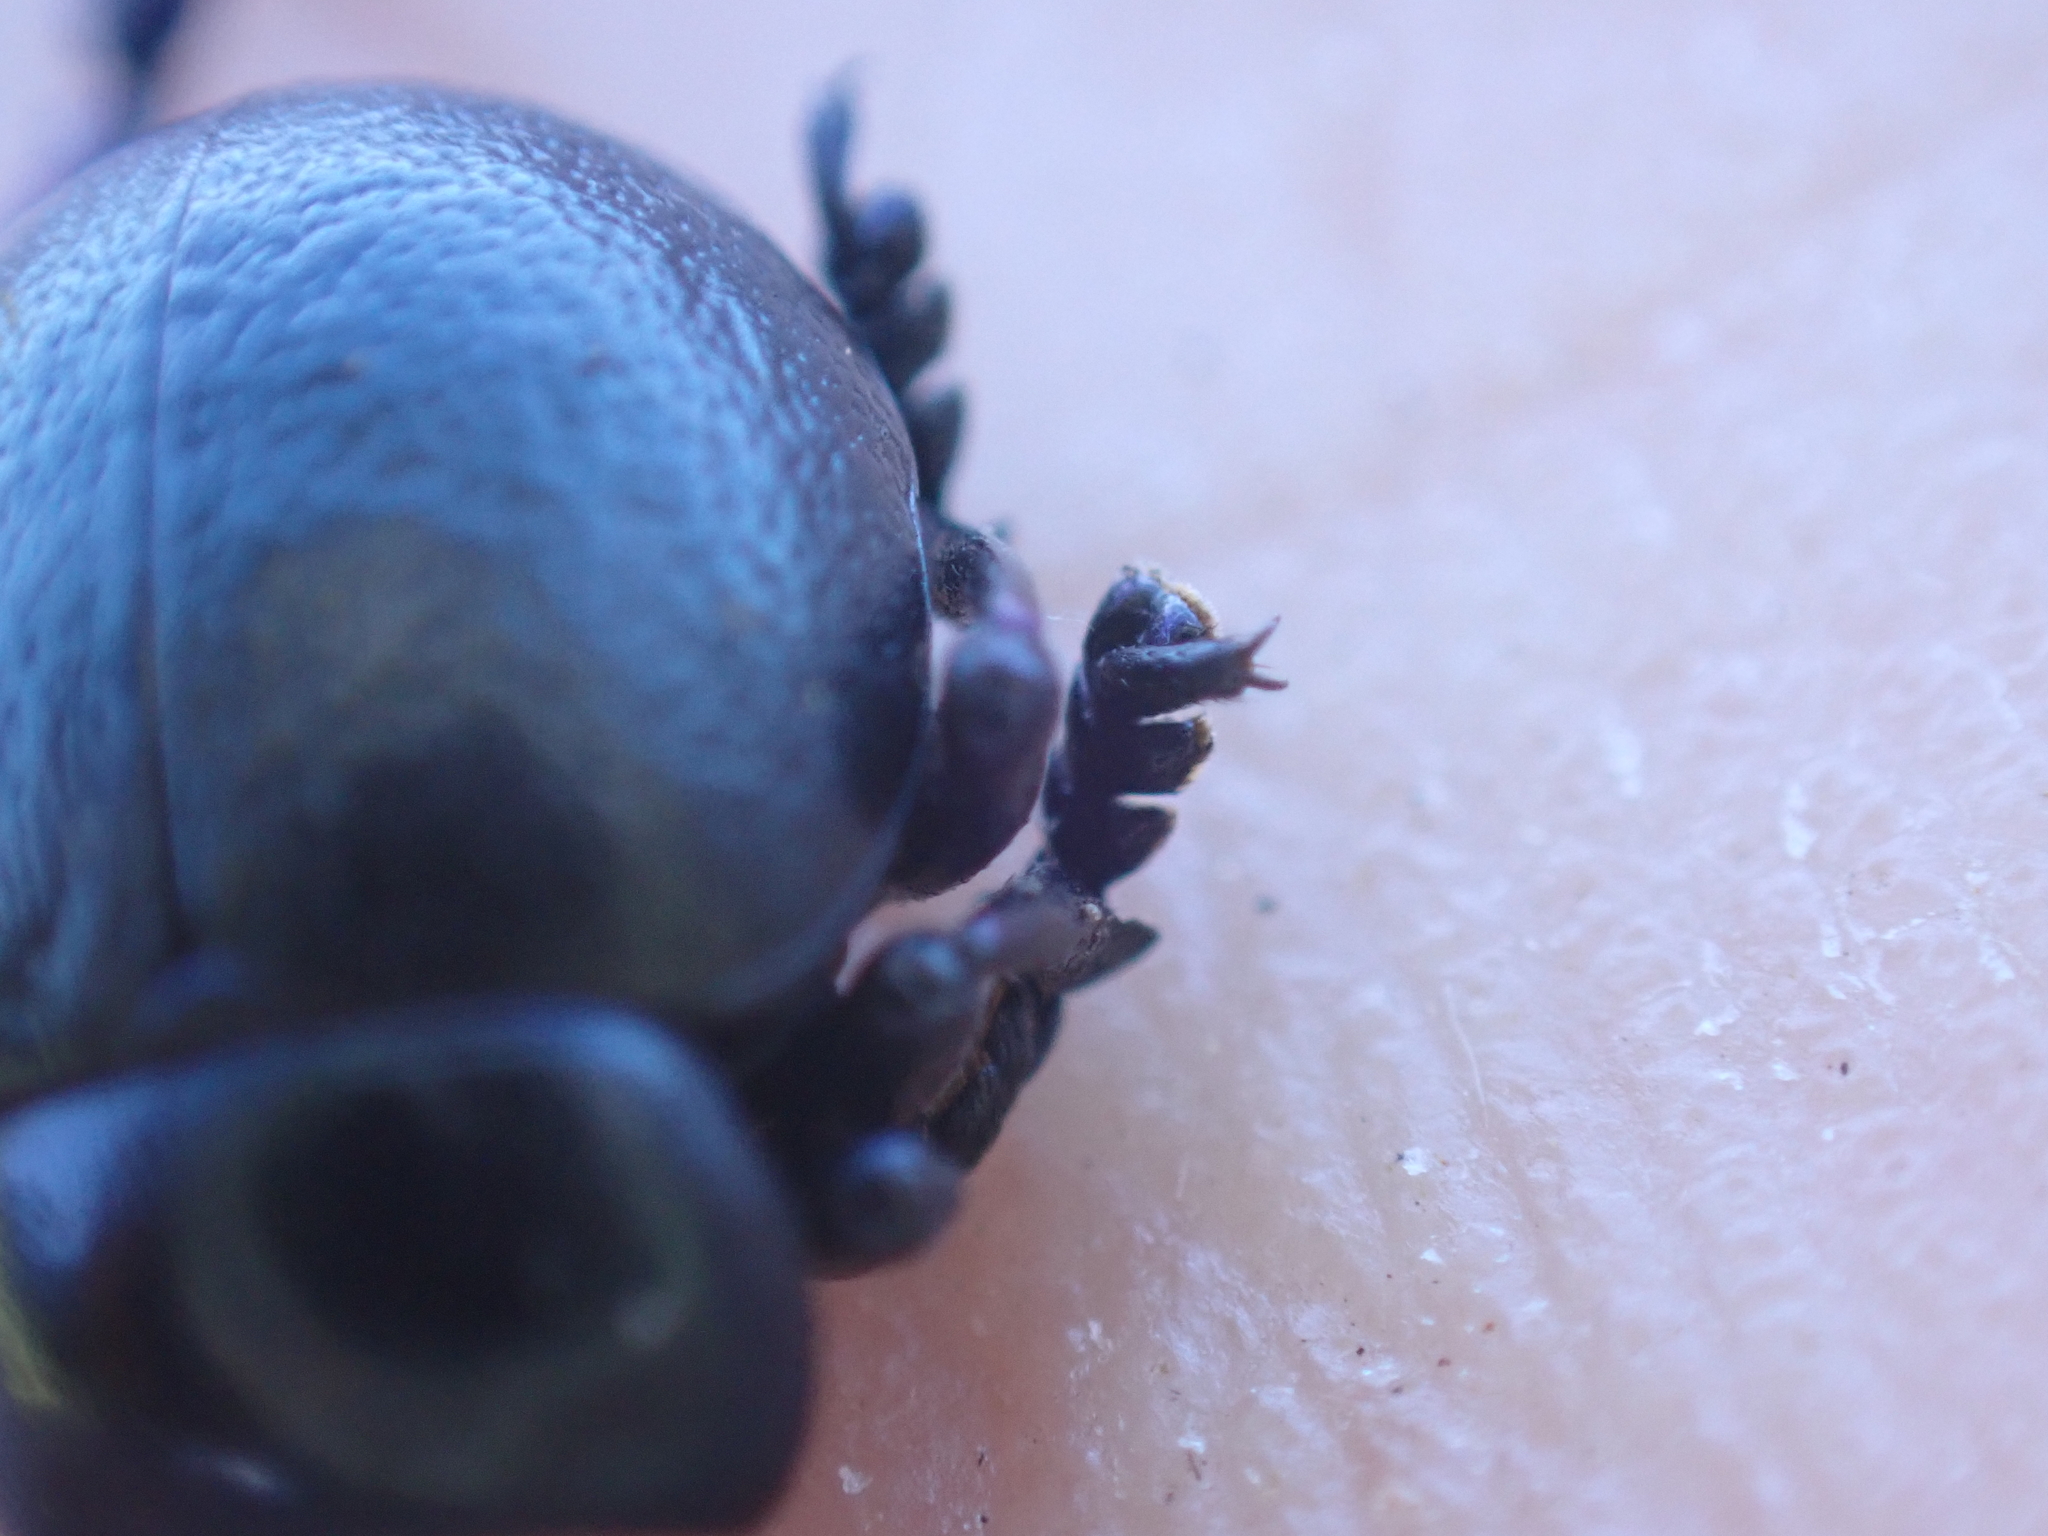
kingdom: Animalia
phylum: Arthropoda
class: Insecta
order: Coleoptera
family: Chrysomelidae
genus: Timarcha
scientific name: Timarcha goettingensis
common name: Small bloody-nosed beetle
